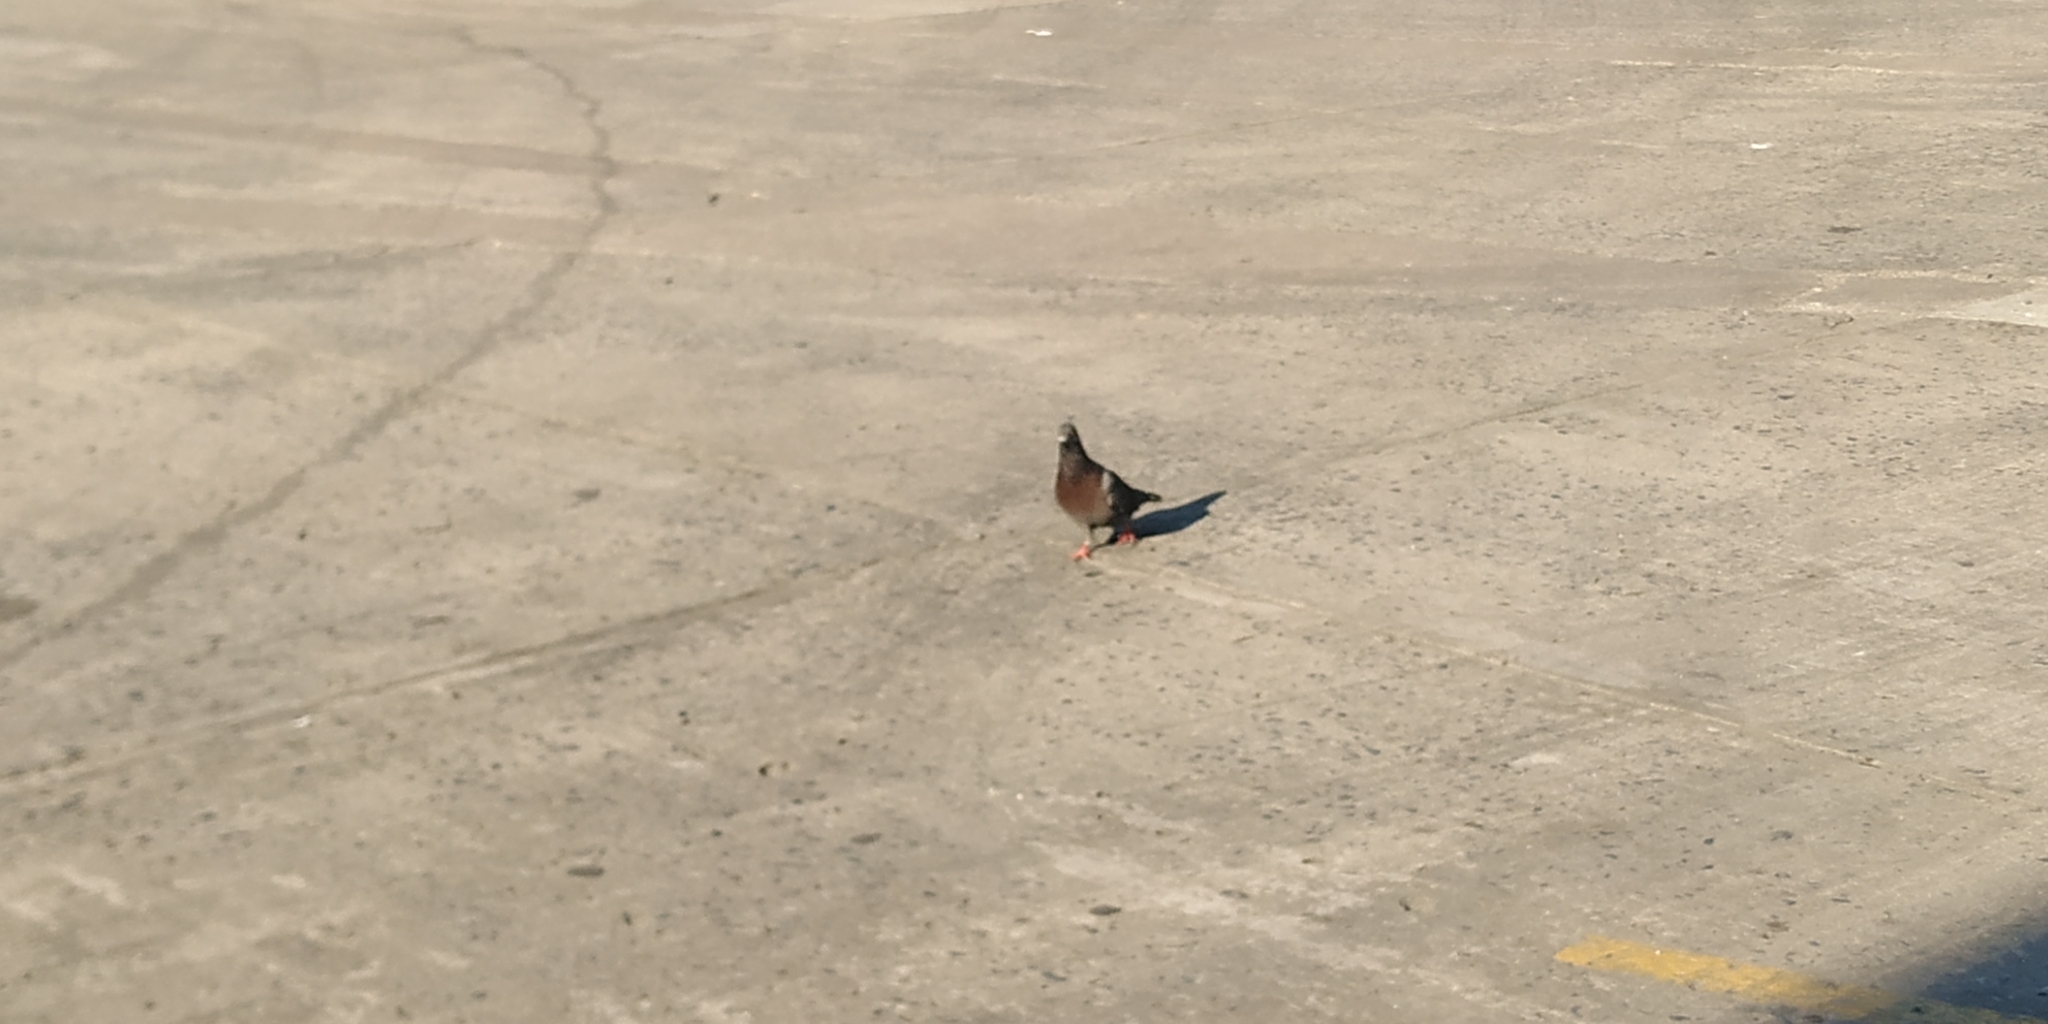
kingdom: Animalia
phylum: Chordata
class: Aves
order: Columbiformes
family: Columbidae
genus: Columba
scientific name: Columba livia
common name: Rock pigeon
